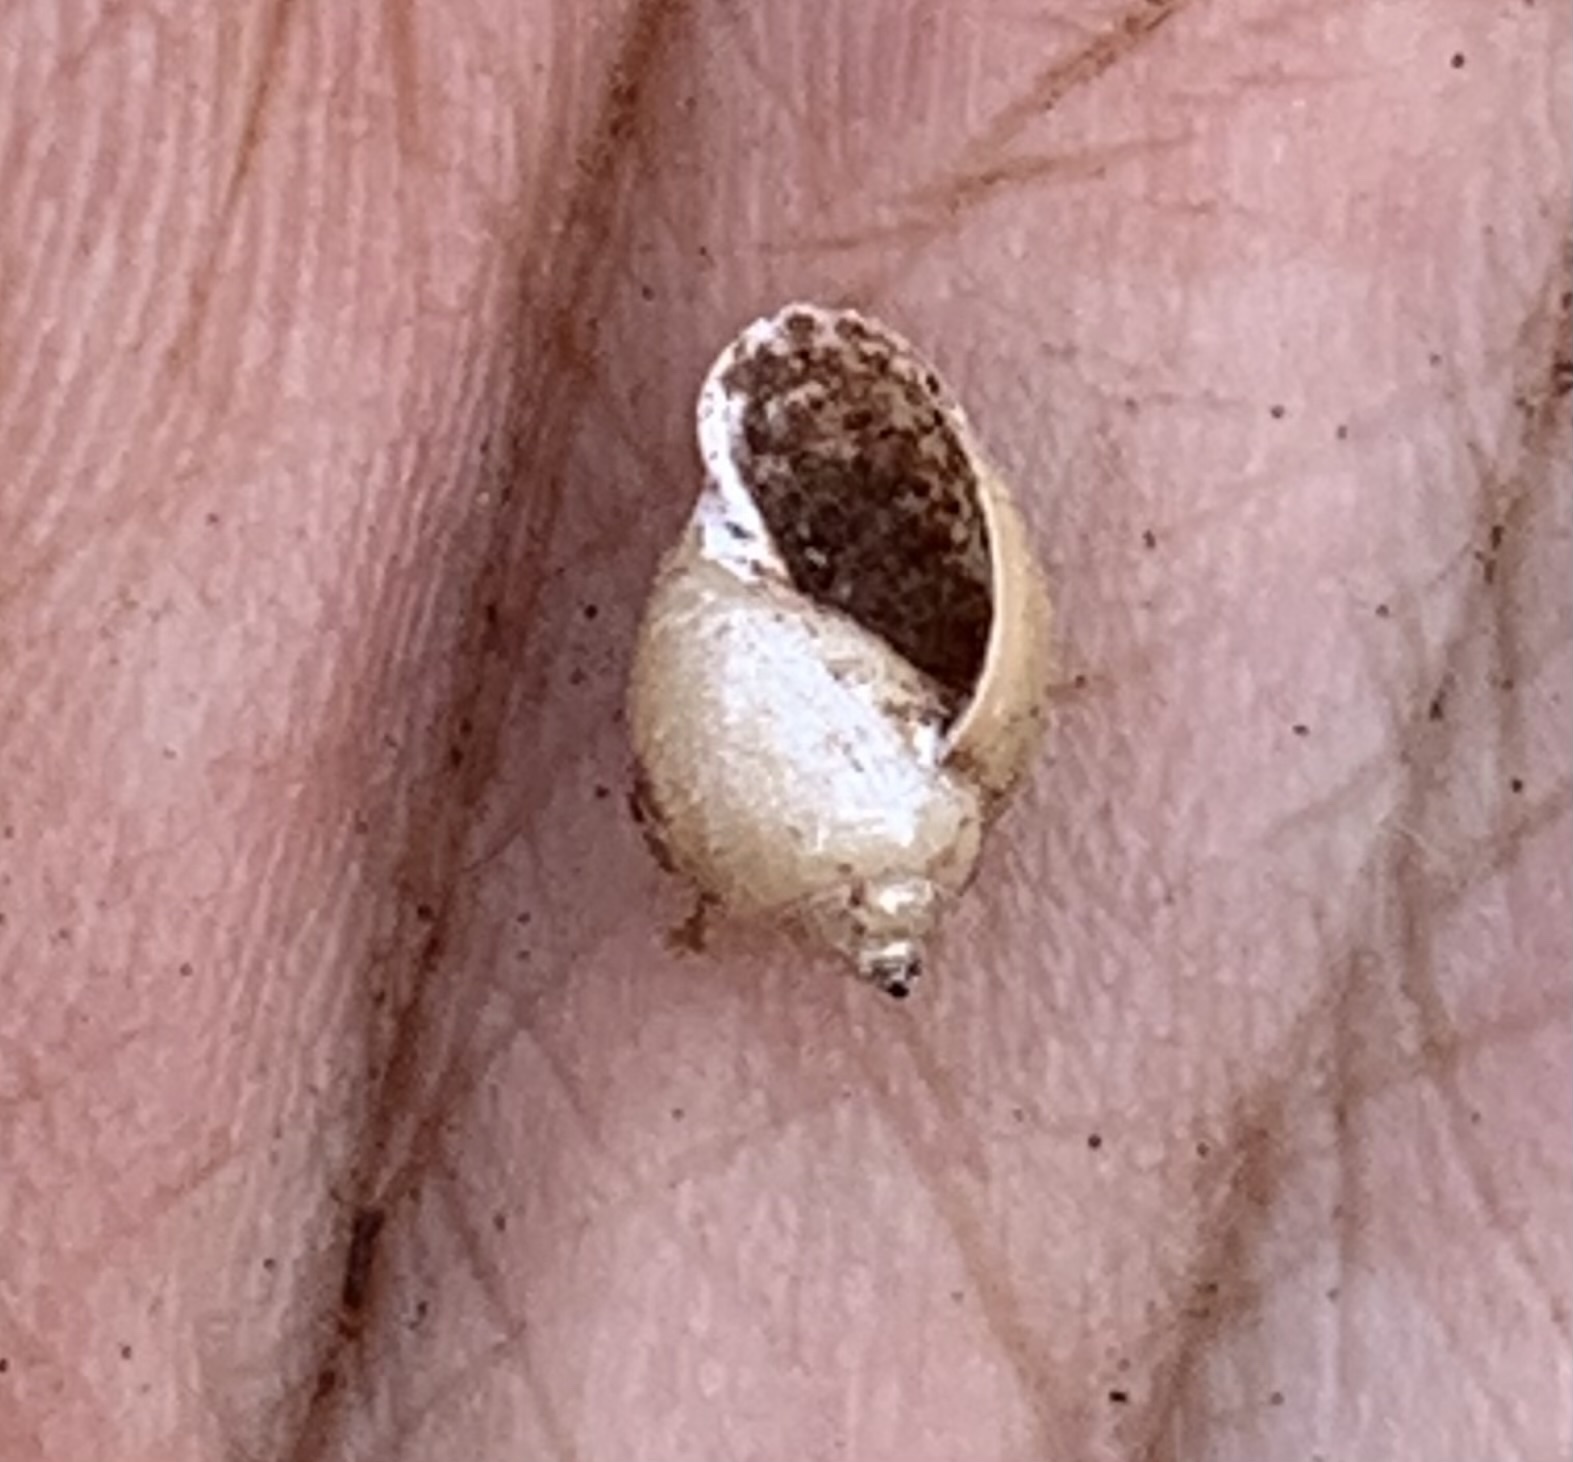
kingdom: Animalia
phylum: Mollusca
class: Gastropoda
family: Physidae
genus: Physella
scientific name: Physella acuta
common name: European physa
